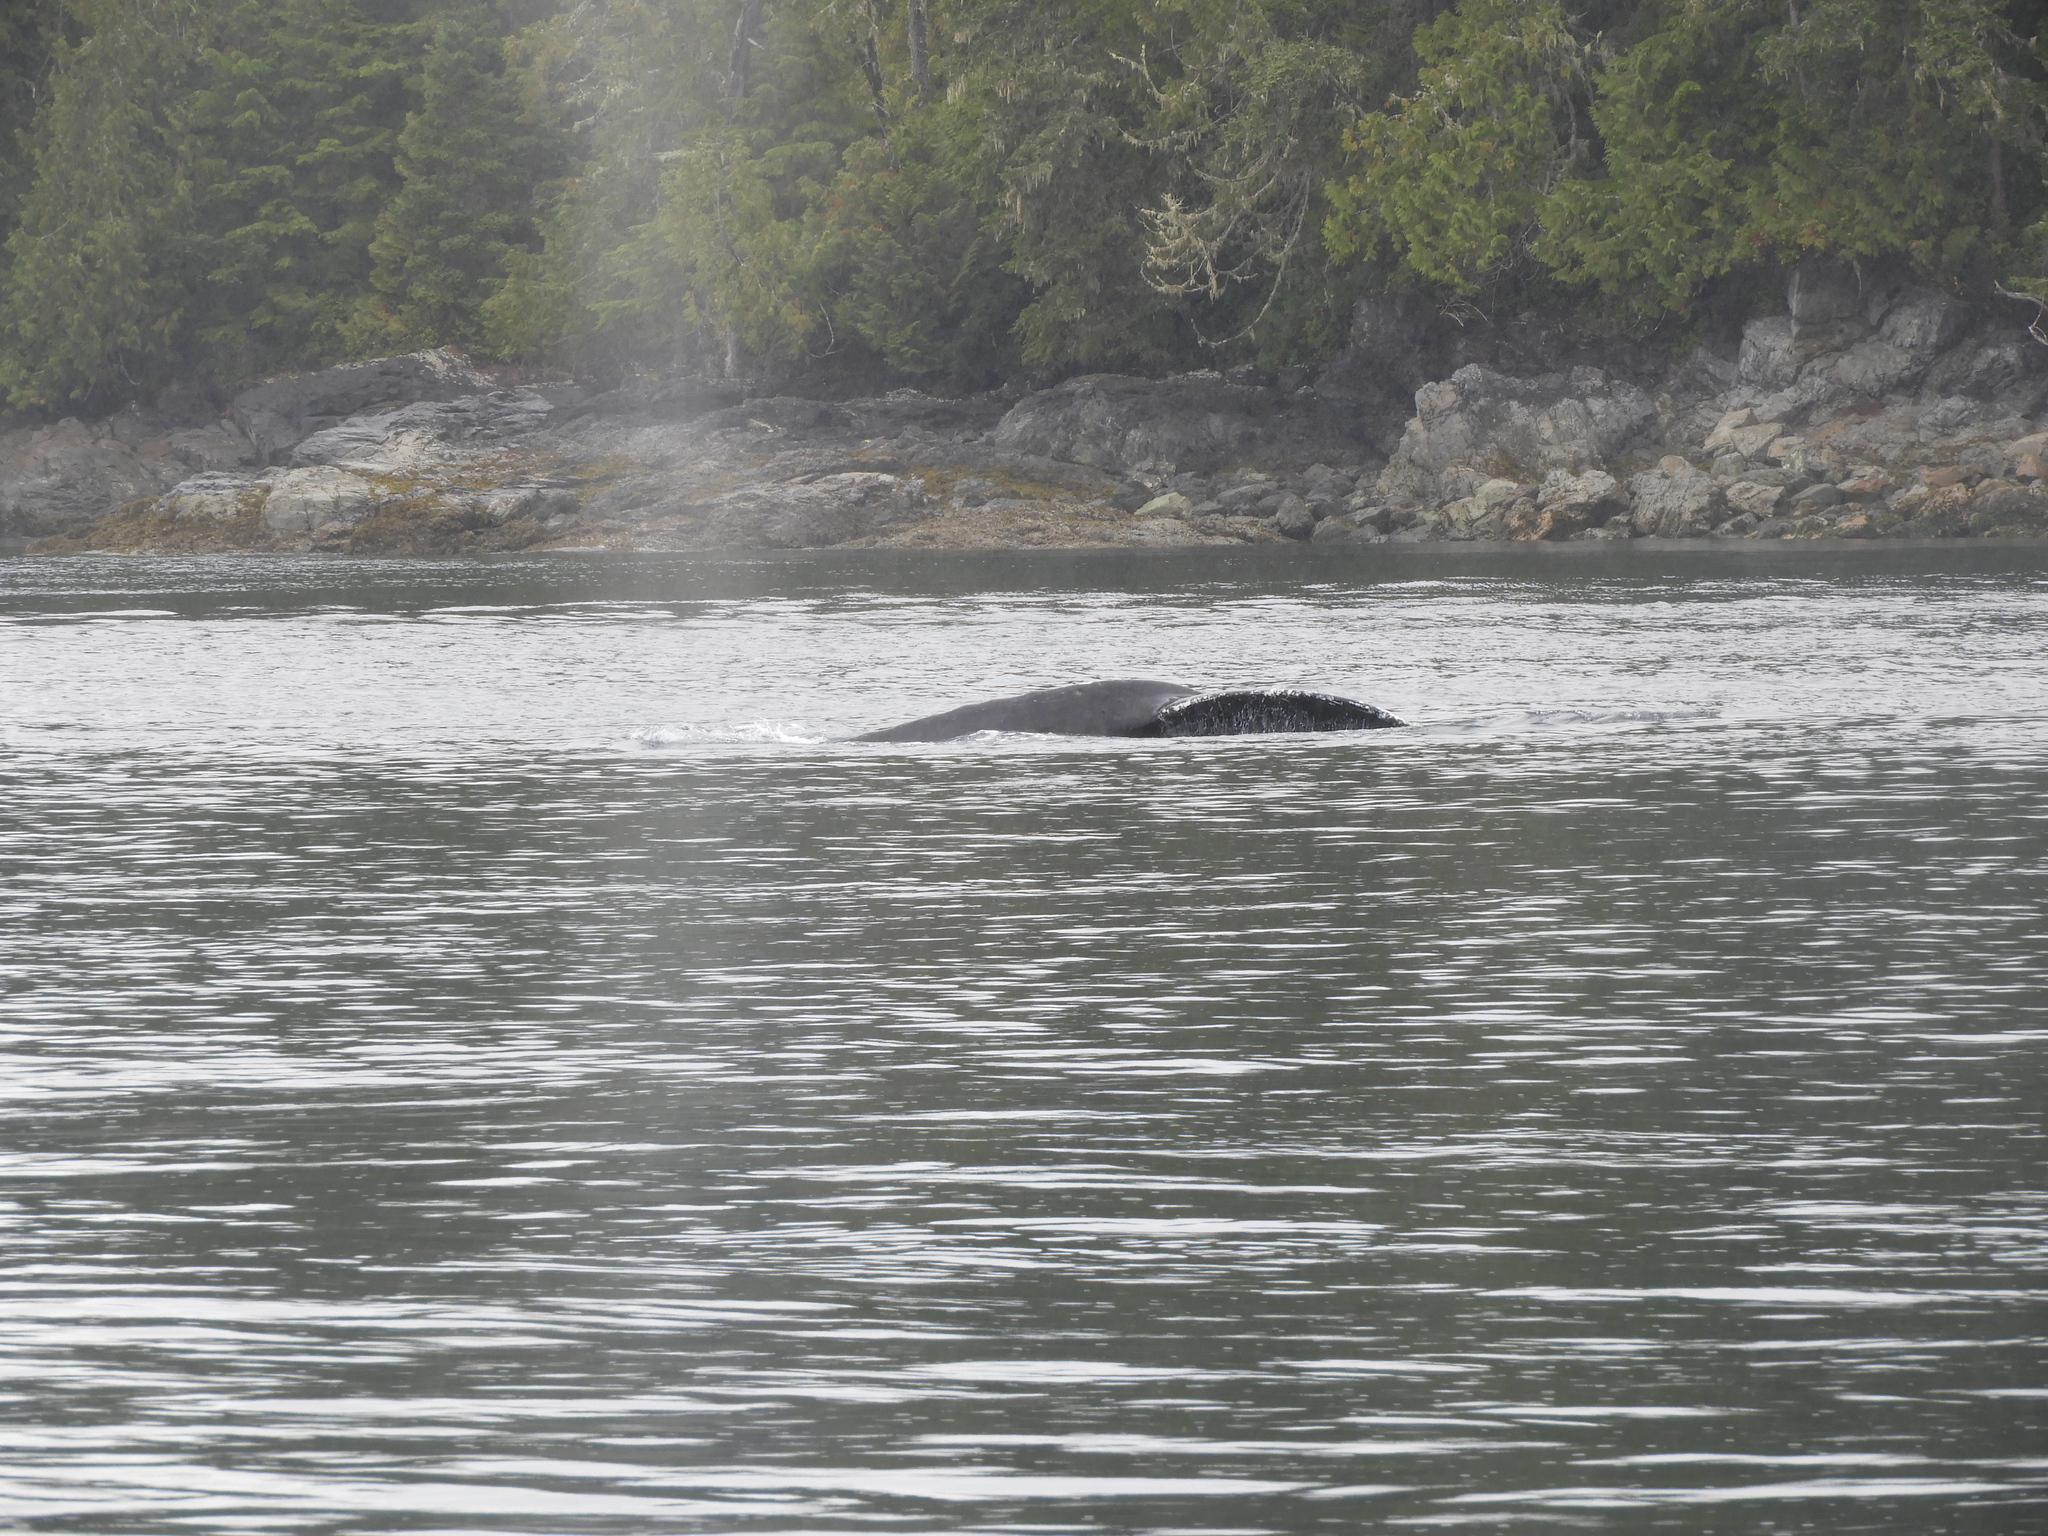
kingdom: Animalia
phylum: Chordata
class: Mammalia
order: Cetacea
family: Balaenopteridae
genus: Megaptera
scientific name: Megaptera novaeangliae
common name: Humpback whale
